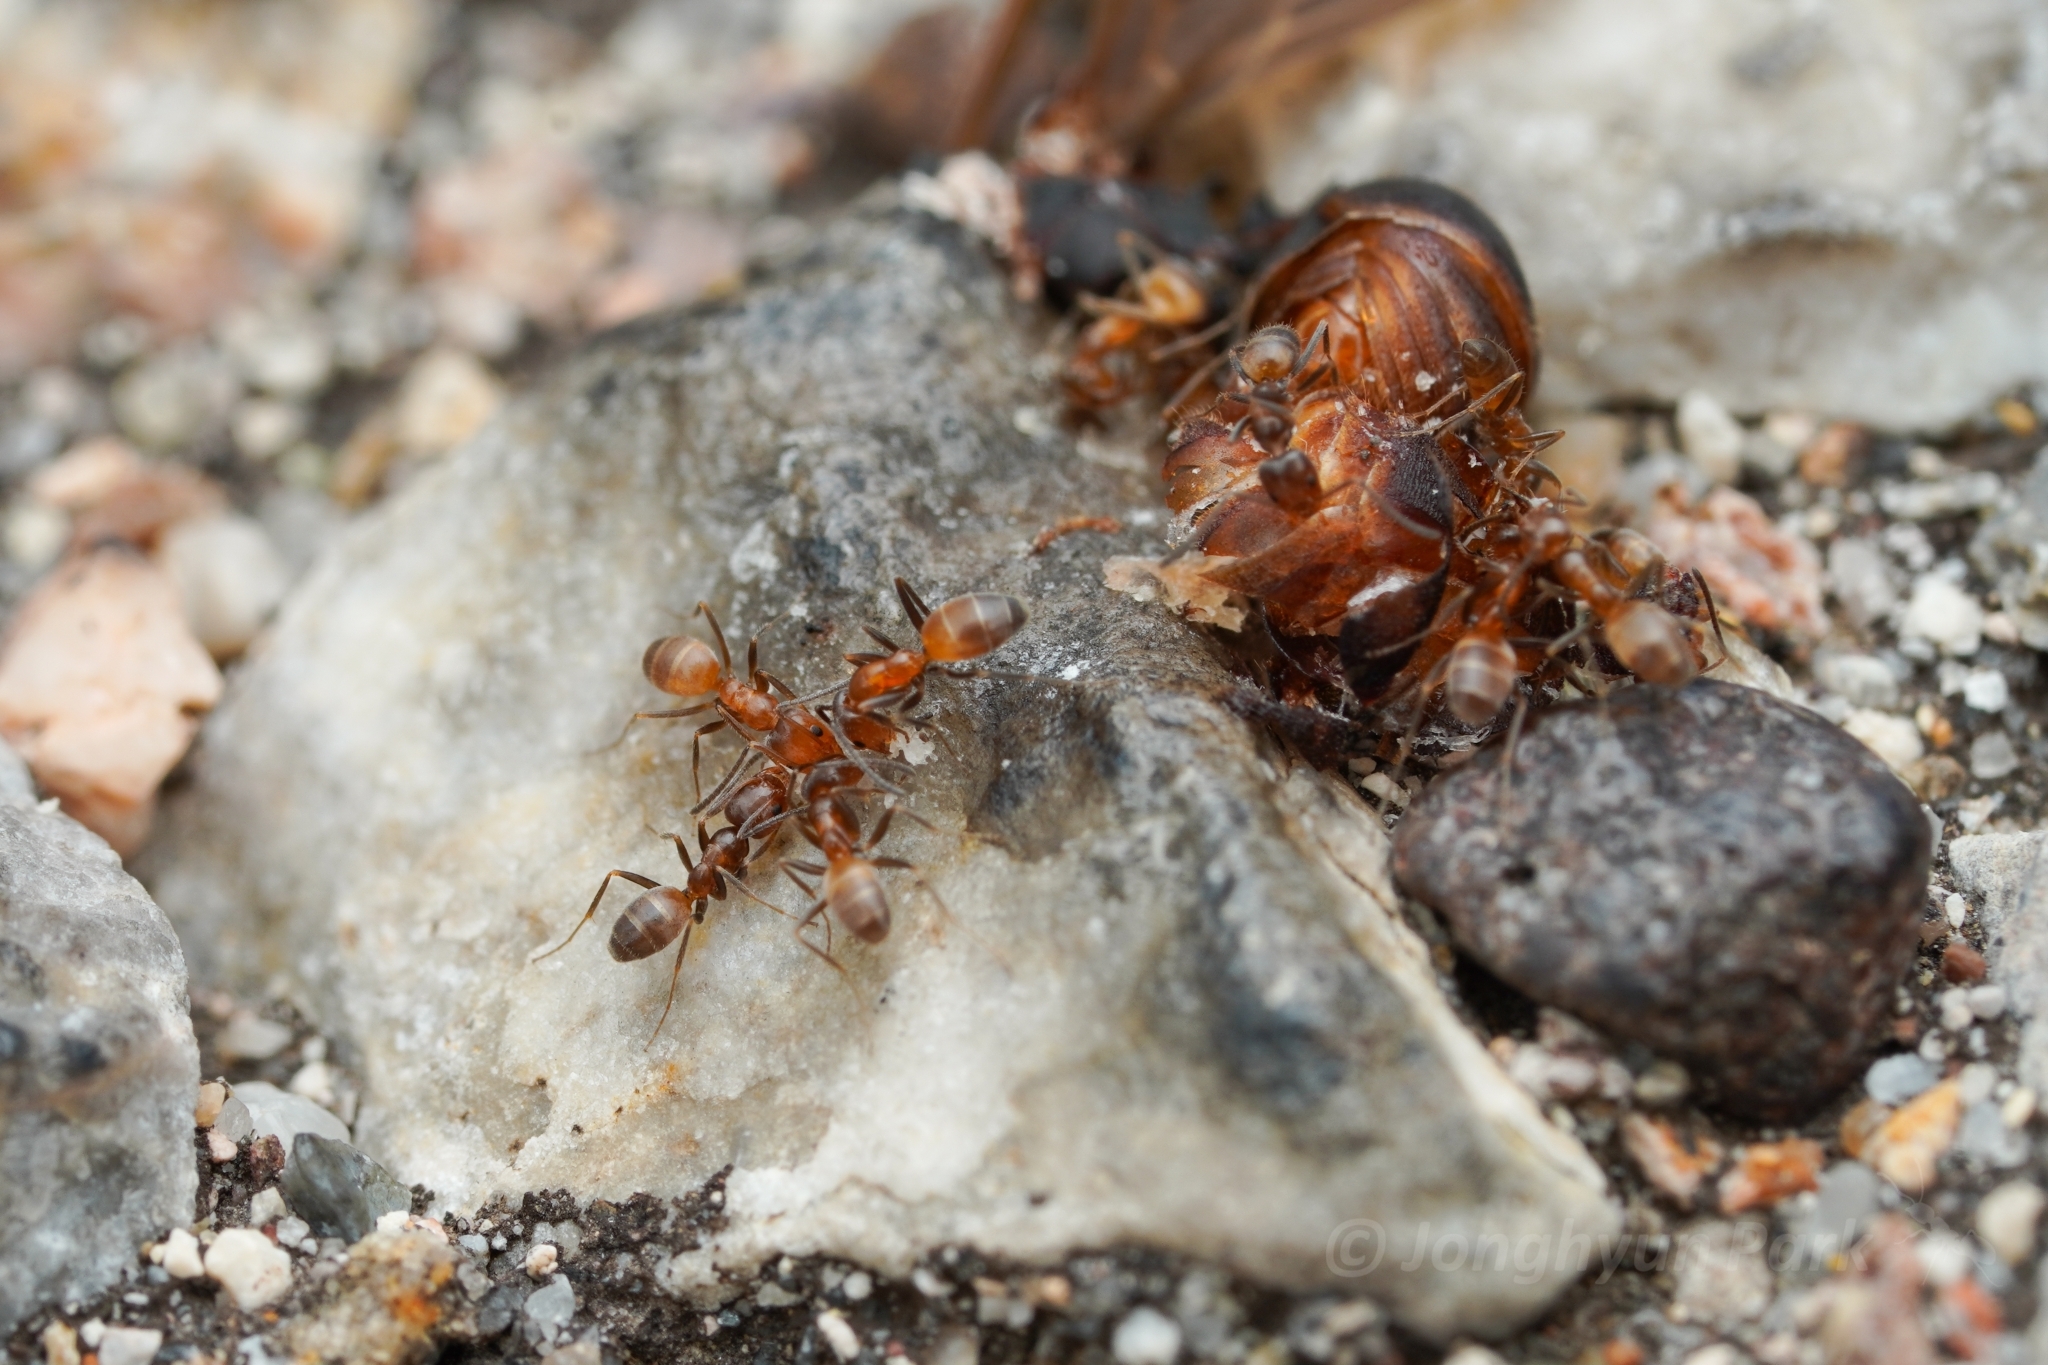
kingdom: Animalia
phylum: Arthropoda
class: Insecta
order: Hymenoptera
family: Formicidae
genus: Forelius
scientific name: Forelius mccooki
